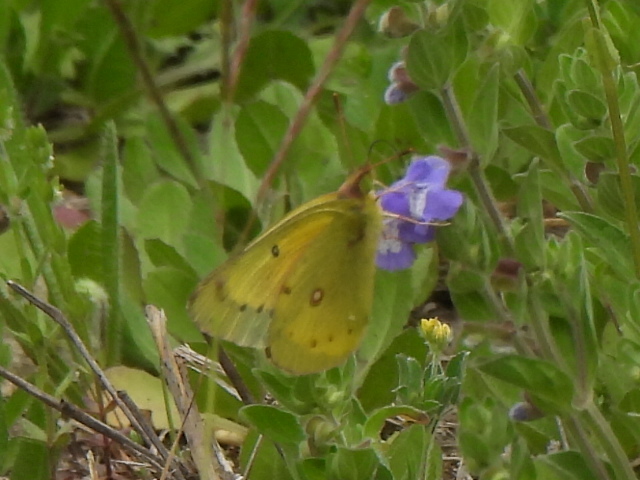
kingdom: Animalia
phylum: Arthropoda
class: Insecta
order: Lepidoptera
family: Pieridae
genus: Colias
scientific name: Colias eurytheme
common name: Alfalfa butterfly
